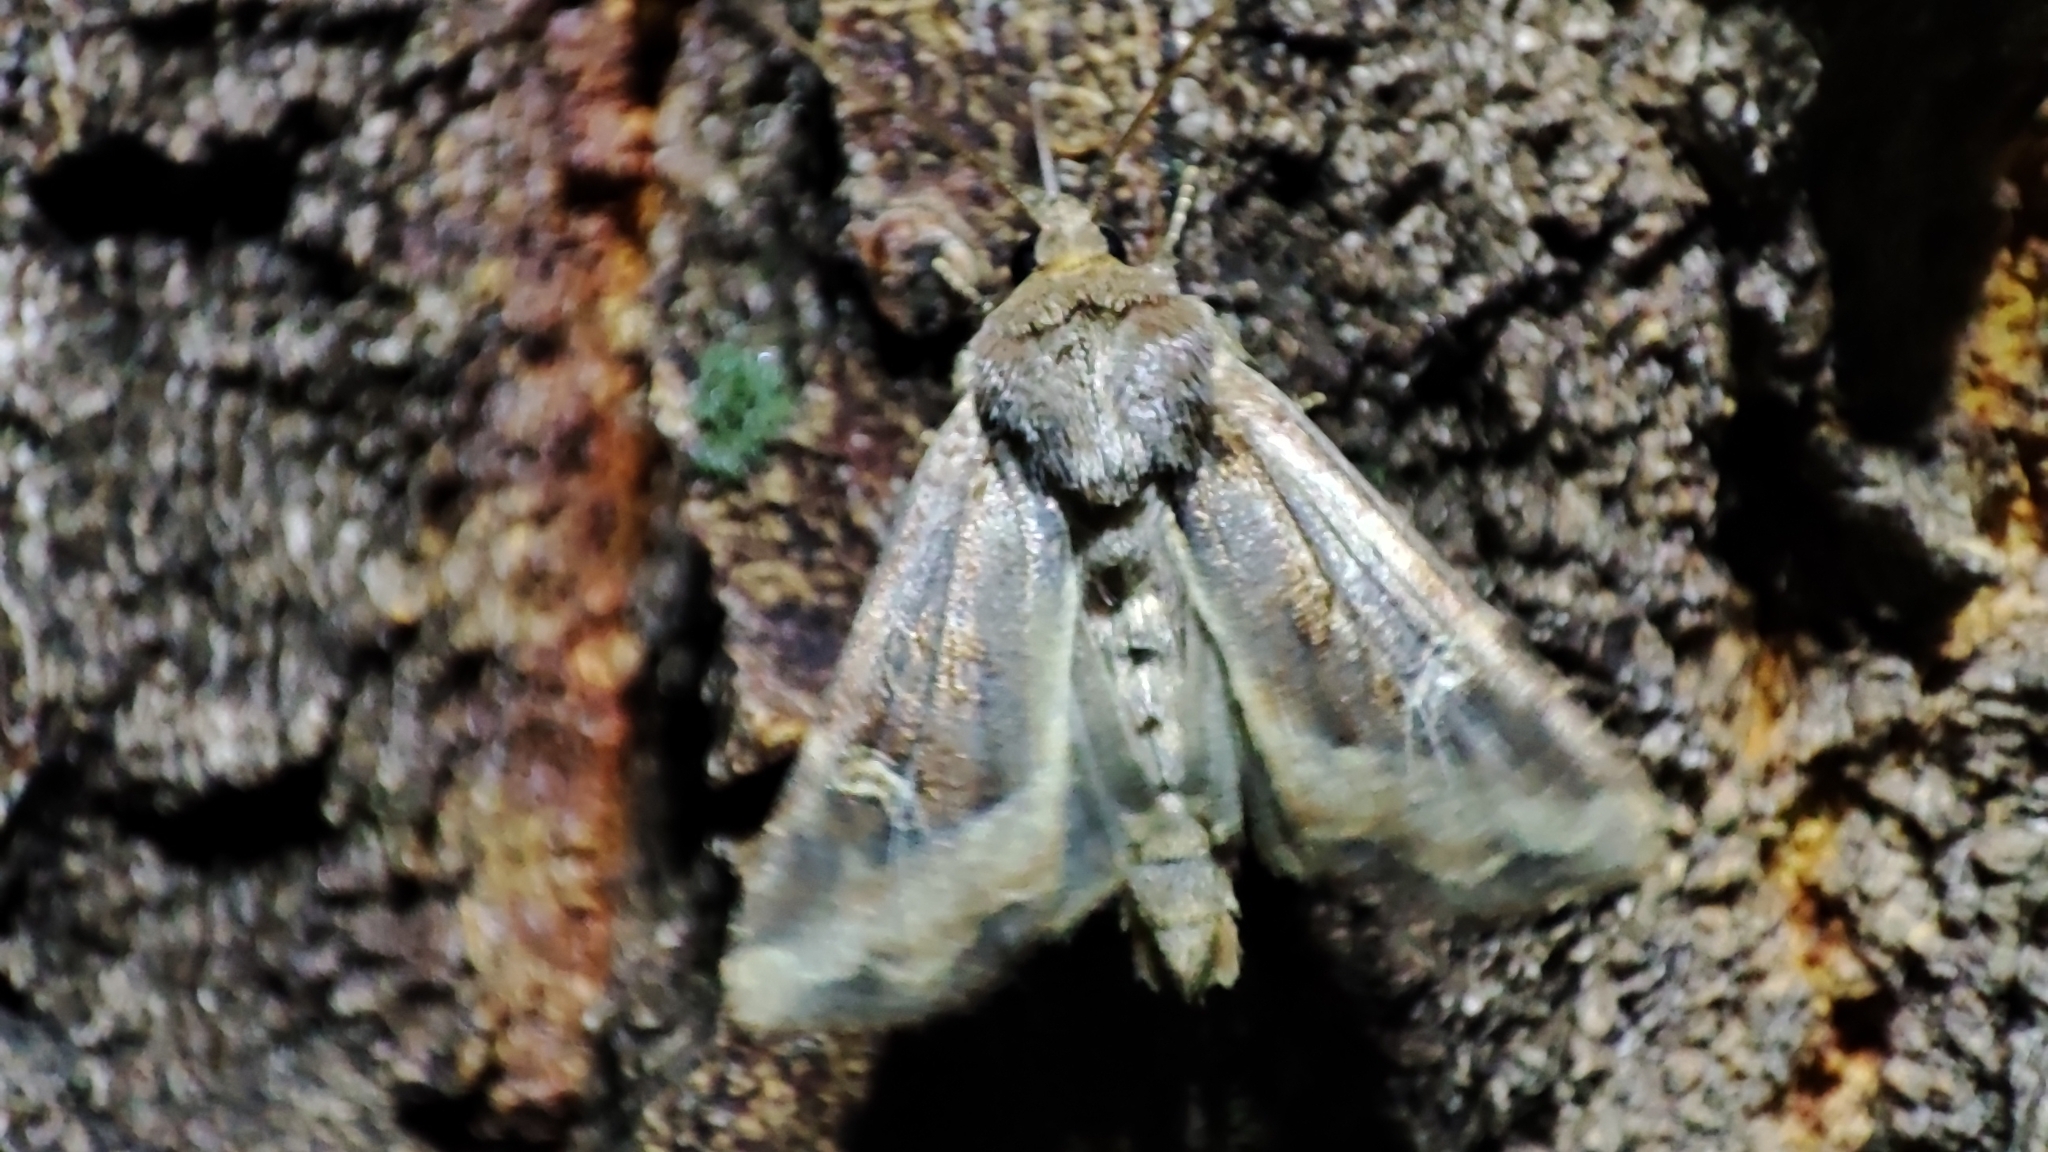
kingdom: Animalia
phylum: Arthropoda
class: Insecta
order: Lepidoptera
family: Noctuidae
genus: Helotropha
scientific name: Helotropha leucostigma
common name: The crescent
